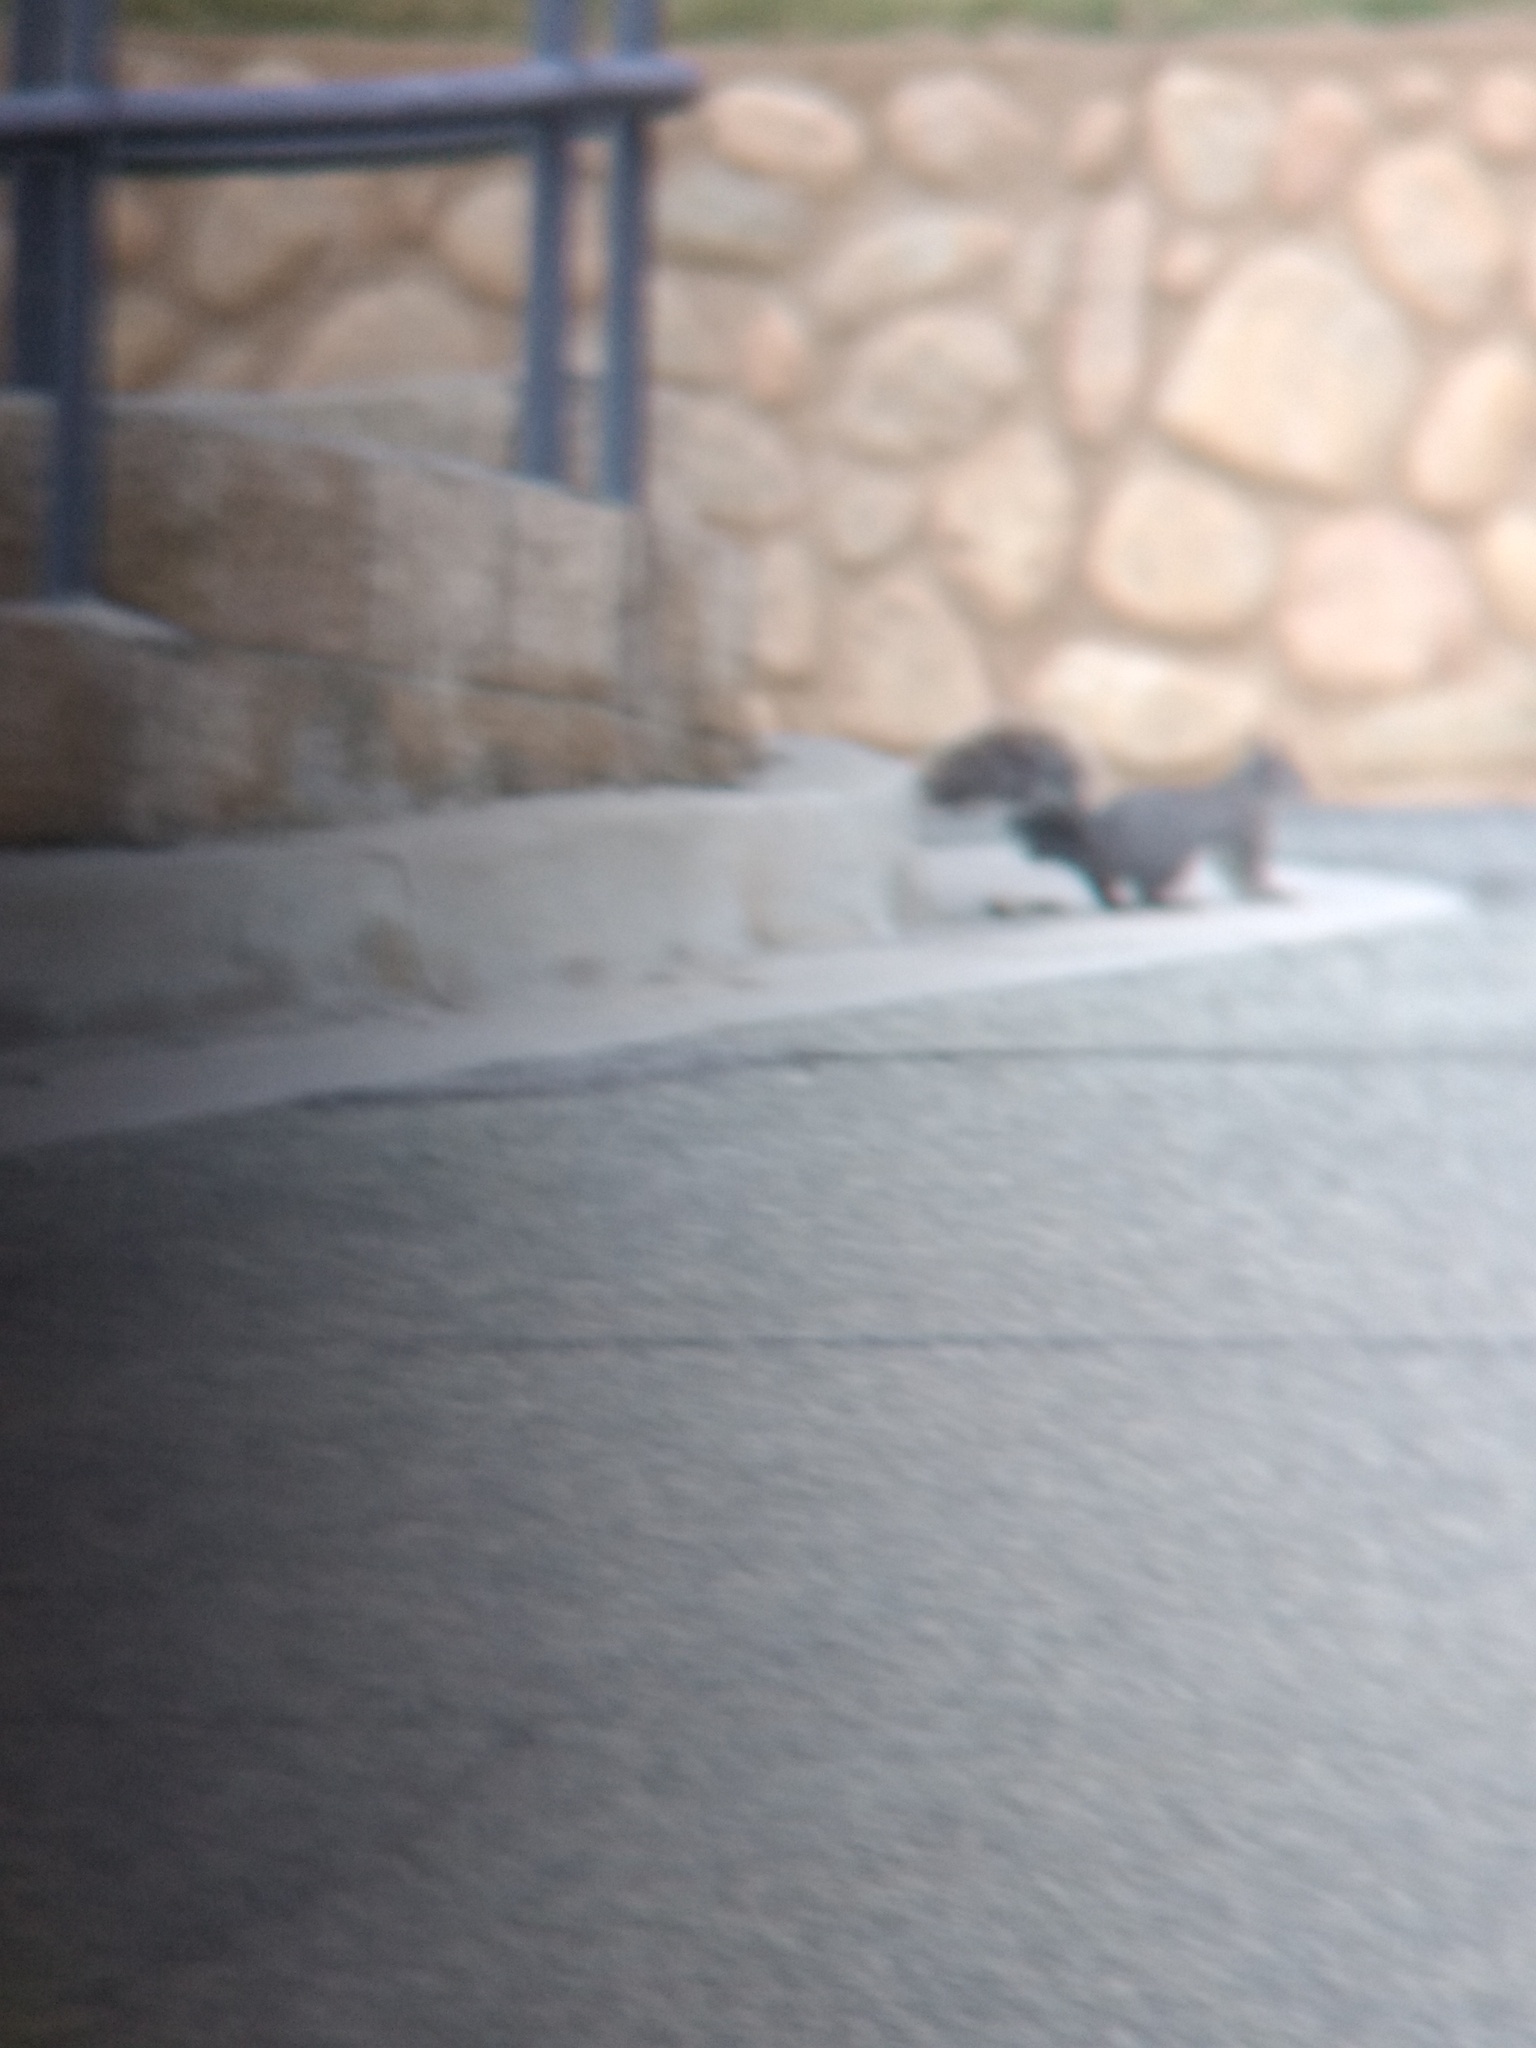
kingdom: Animalia
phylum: Chordata
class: Mammalia
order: Rodentia
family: Sciuridae
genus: Sciurus
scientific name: Sciurus griseus
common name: Western gray squirrel
